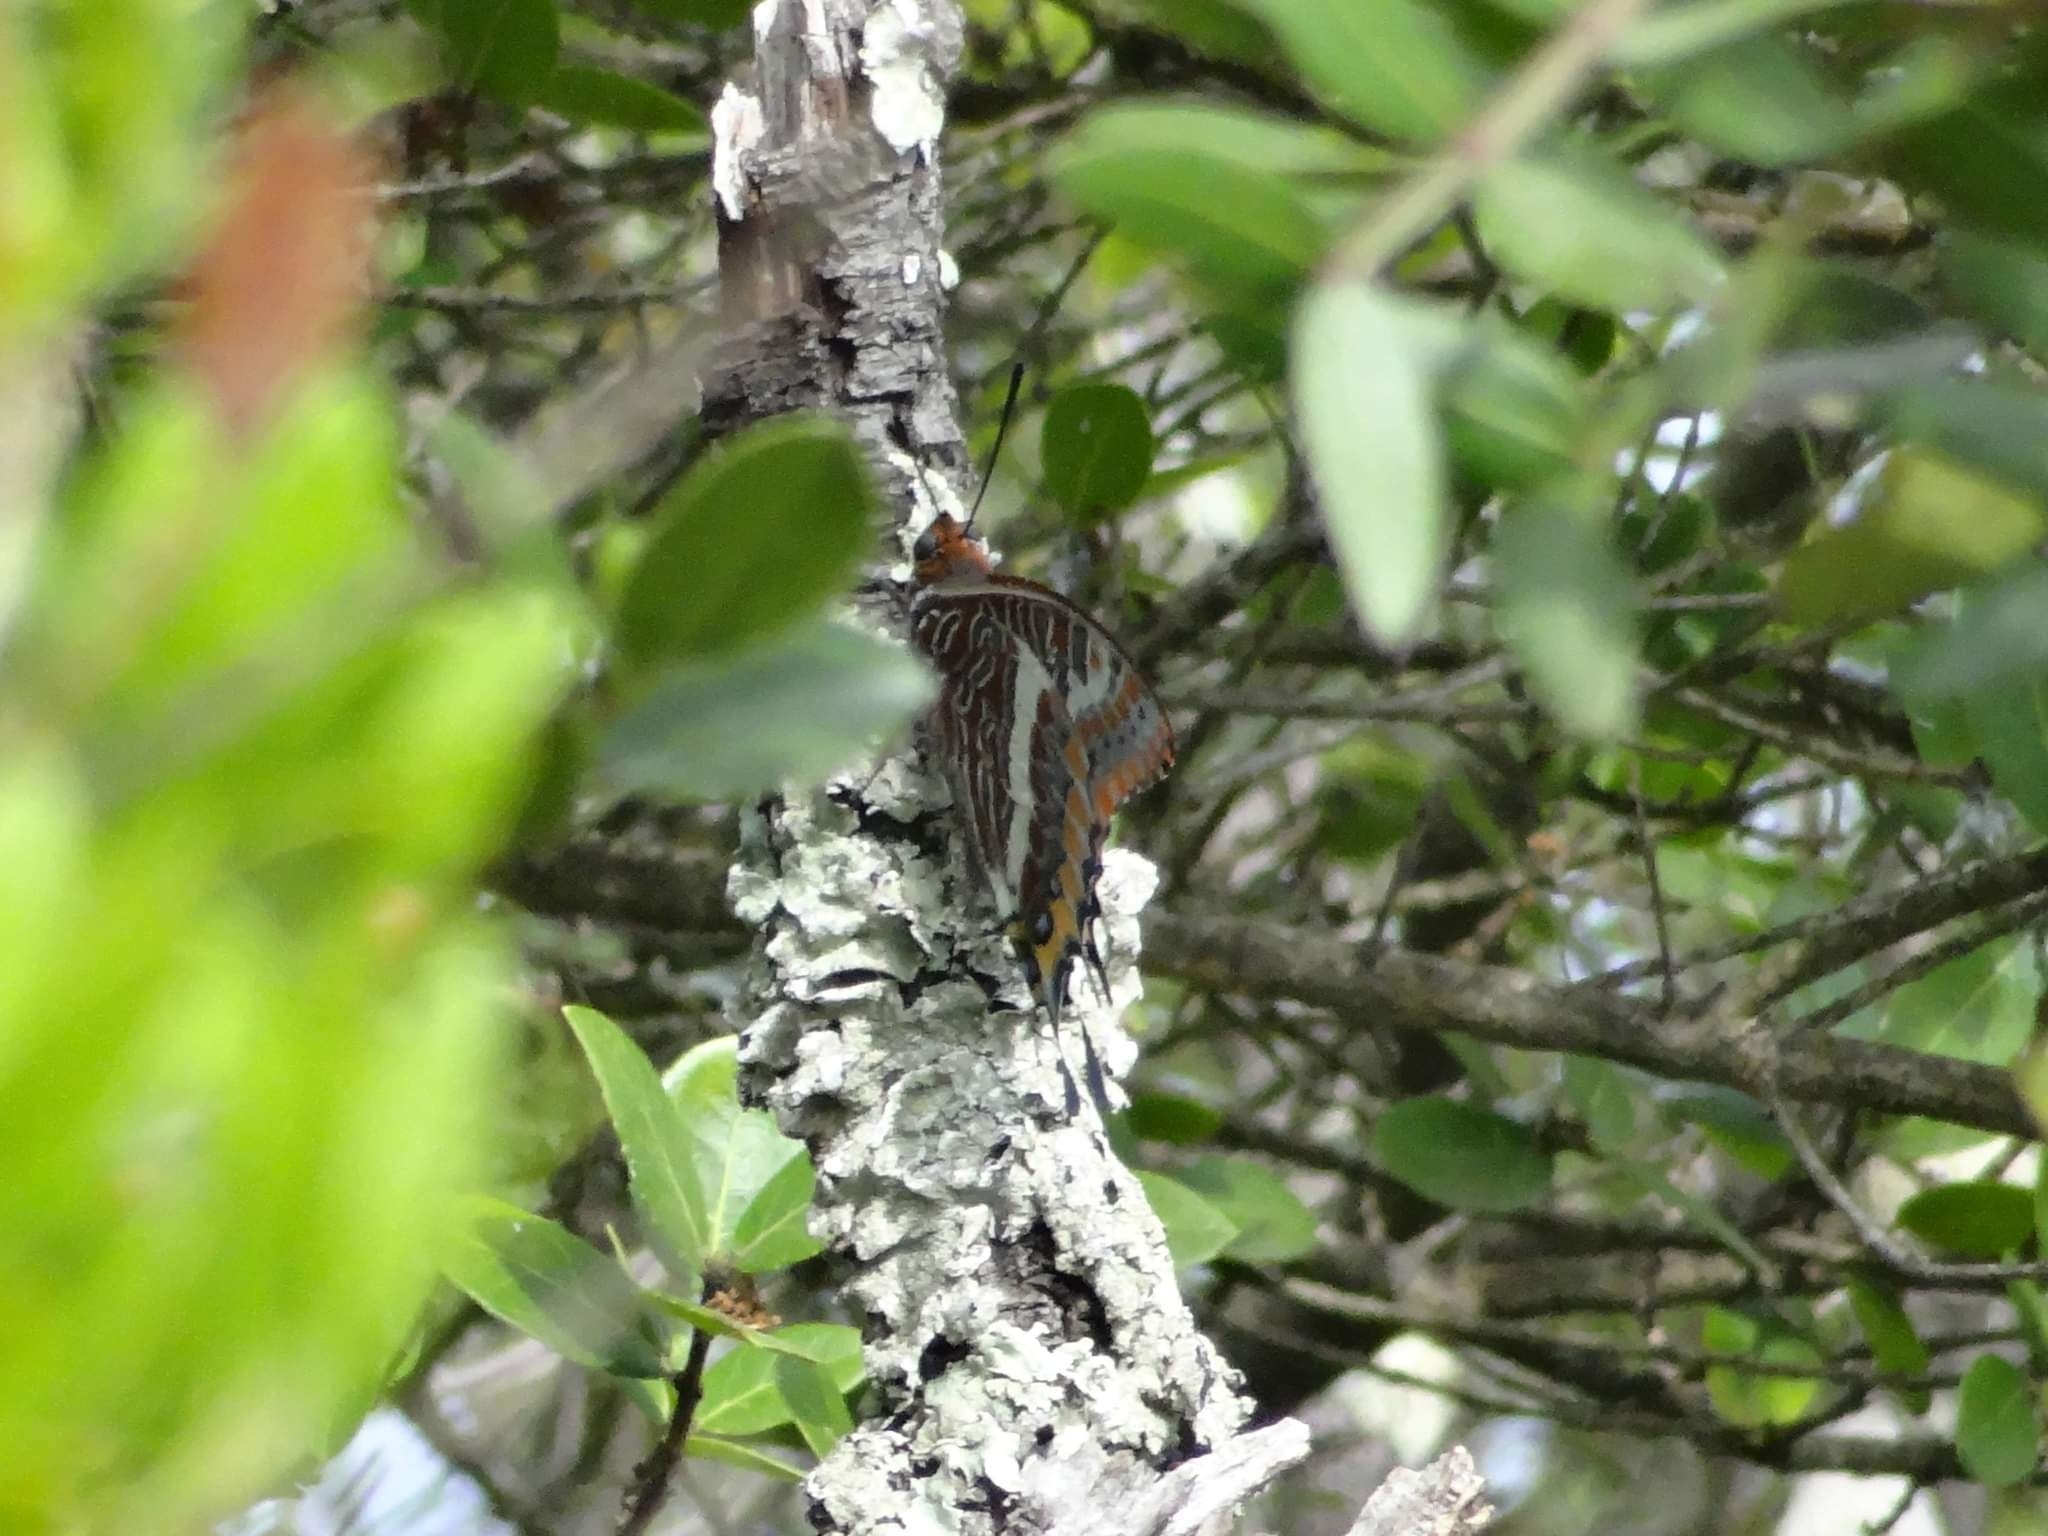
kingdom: Animalia
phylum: Arthropoda
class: Insecta
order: Lepidoptera
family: Nymphalidae
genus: Charaxes
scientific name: Charaxes jasius
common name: Two tailed pasha
